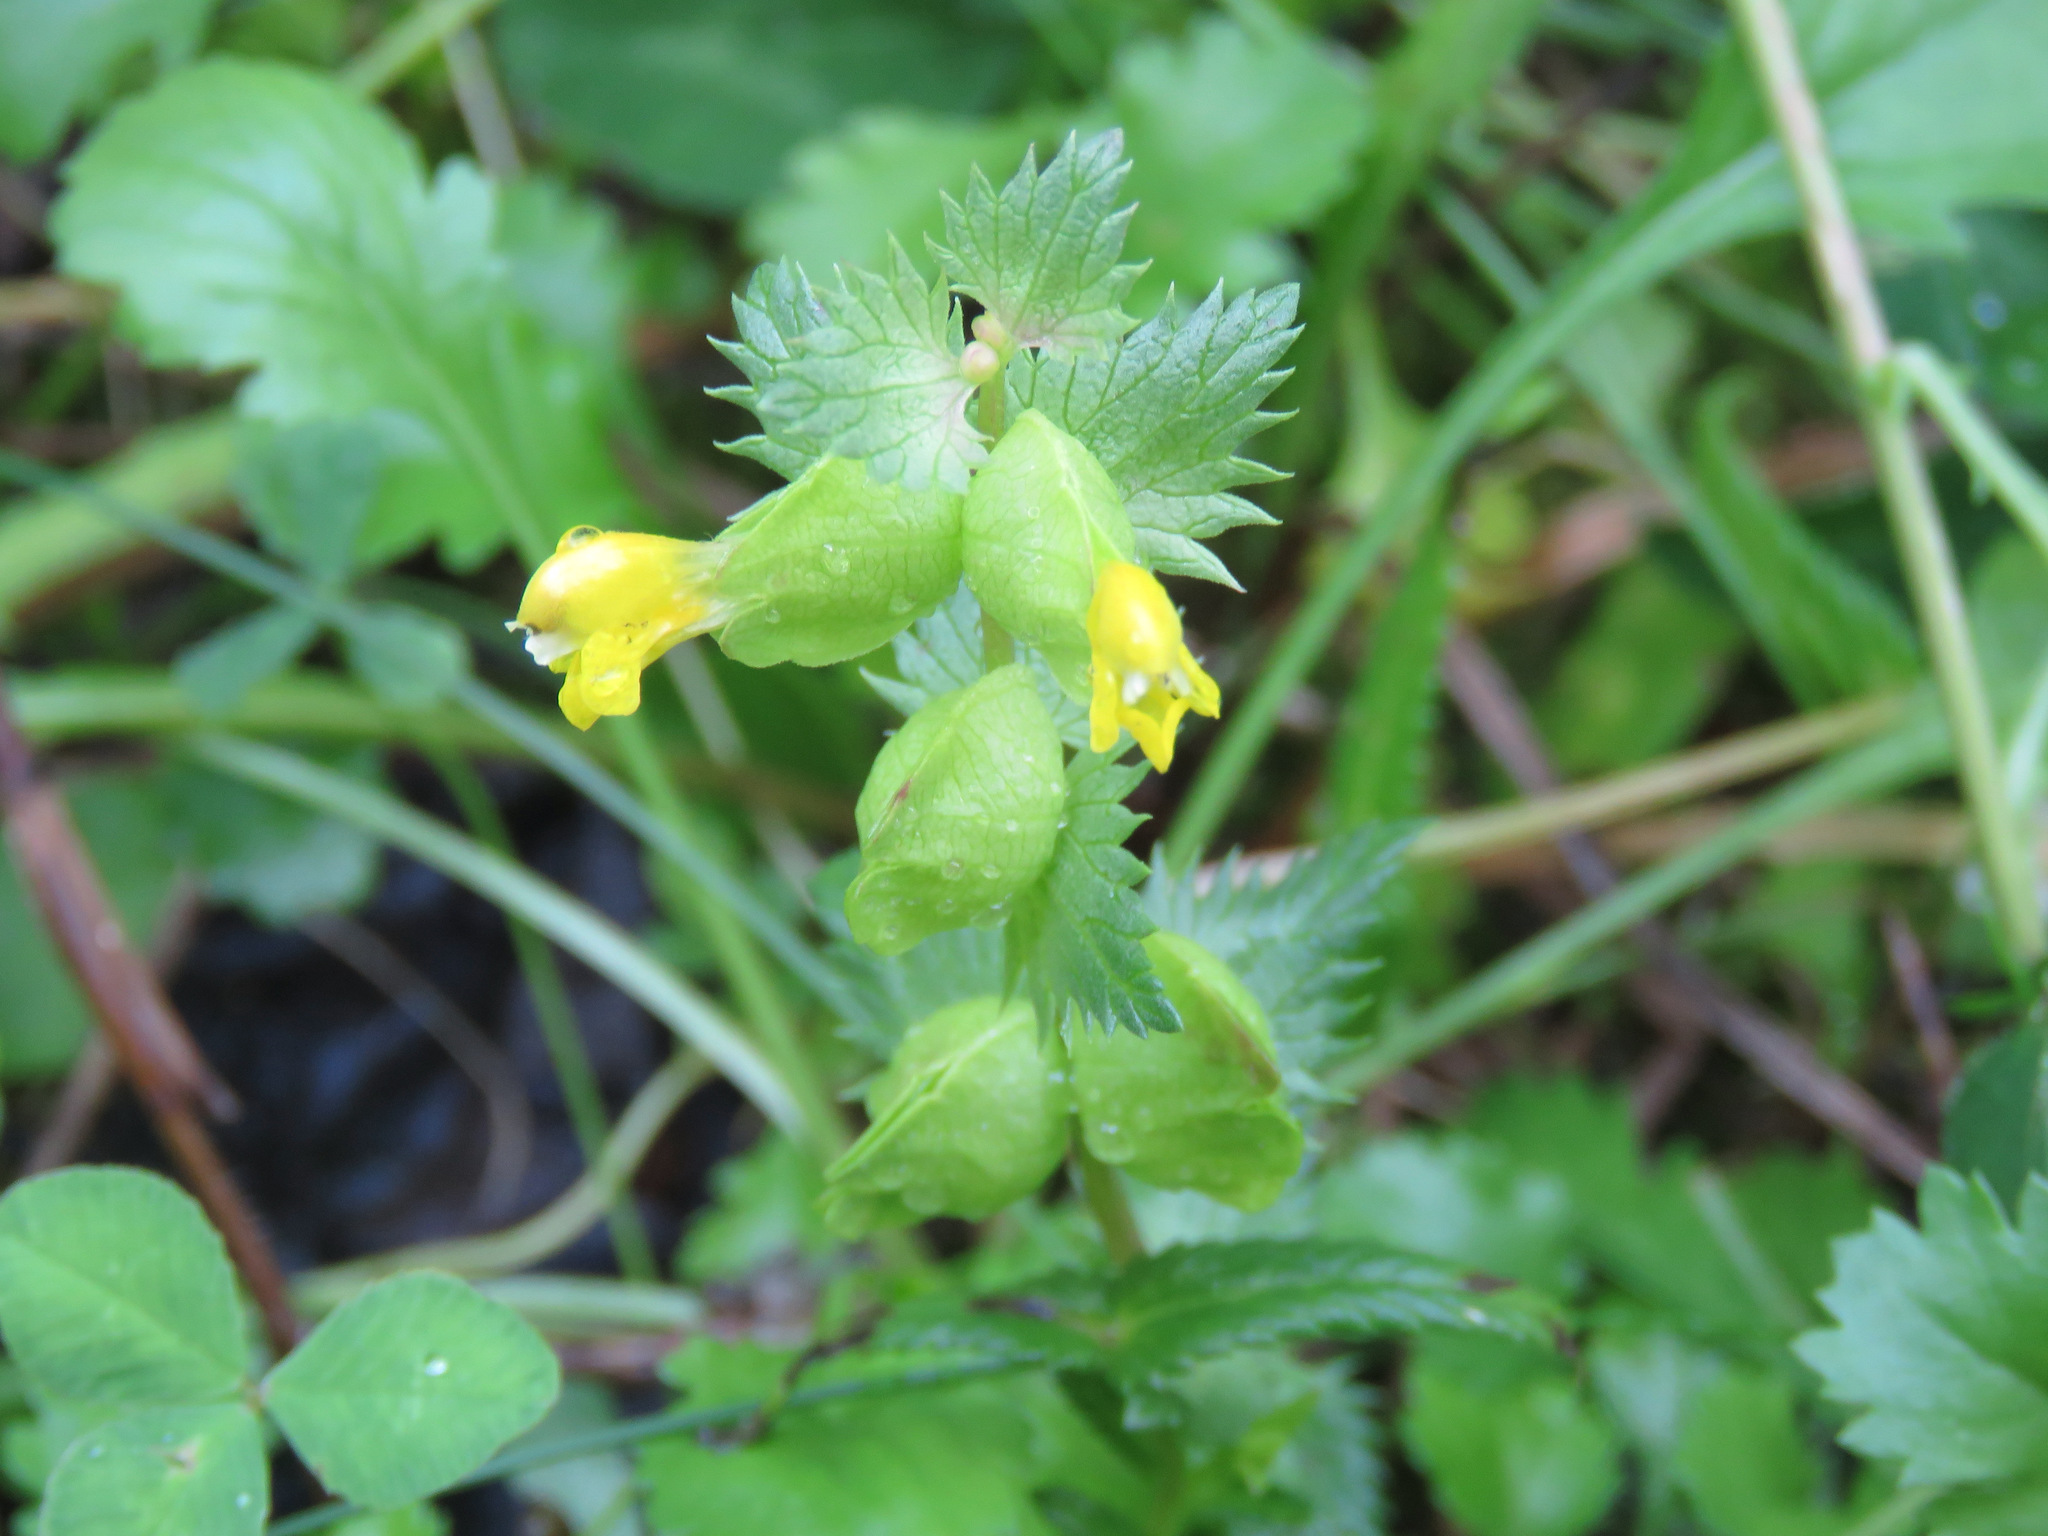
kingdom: Plantae
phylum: Tracheophyta
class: Magnoliopsida
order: Lamiales
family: Orobanchaceae
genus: Rhinanthus
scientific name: Rhinanthus minor
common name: Yellow-rattle
